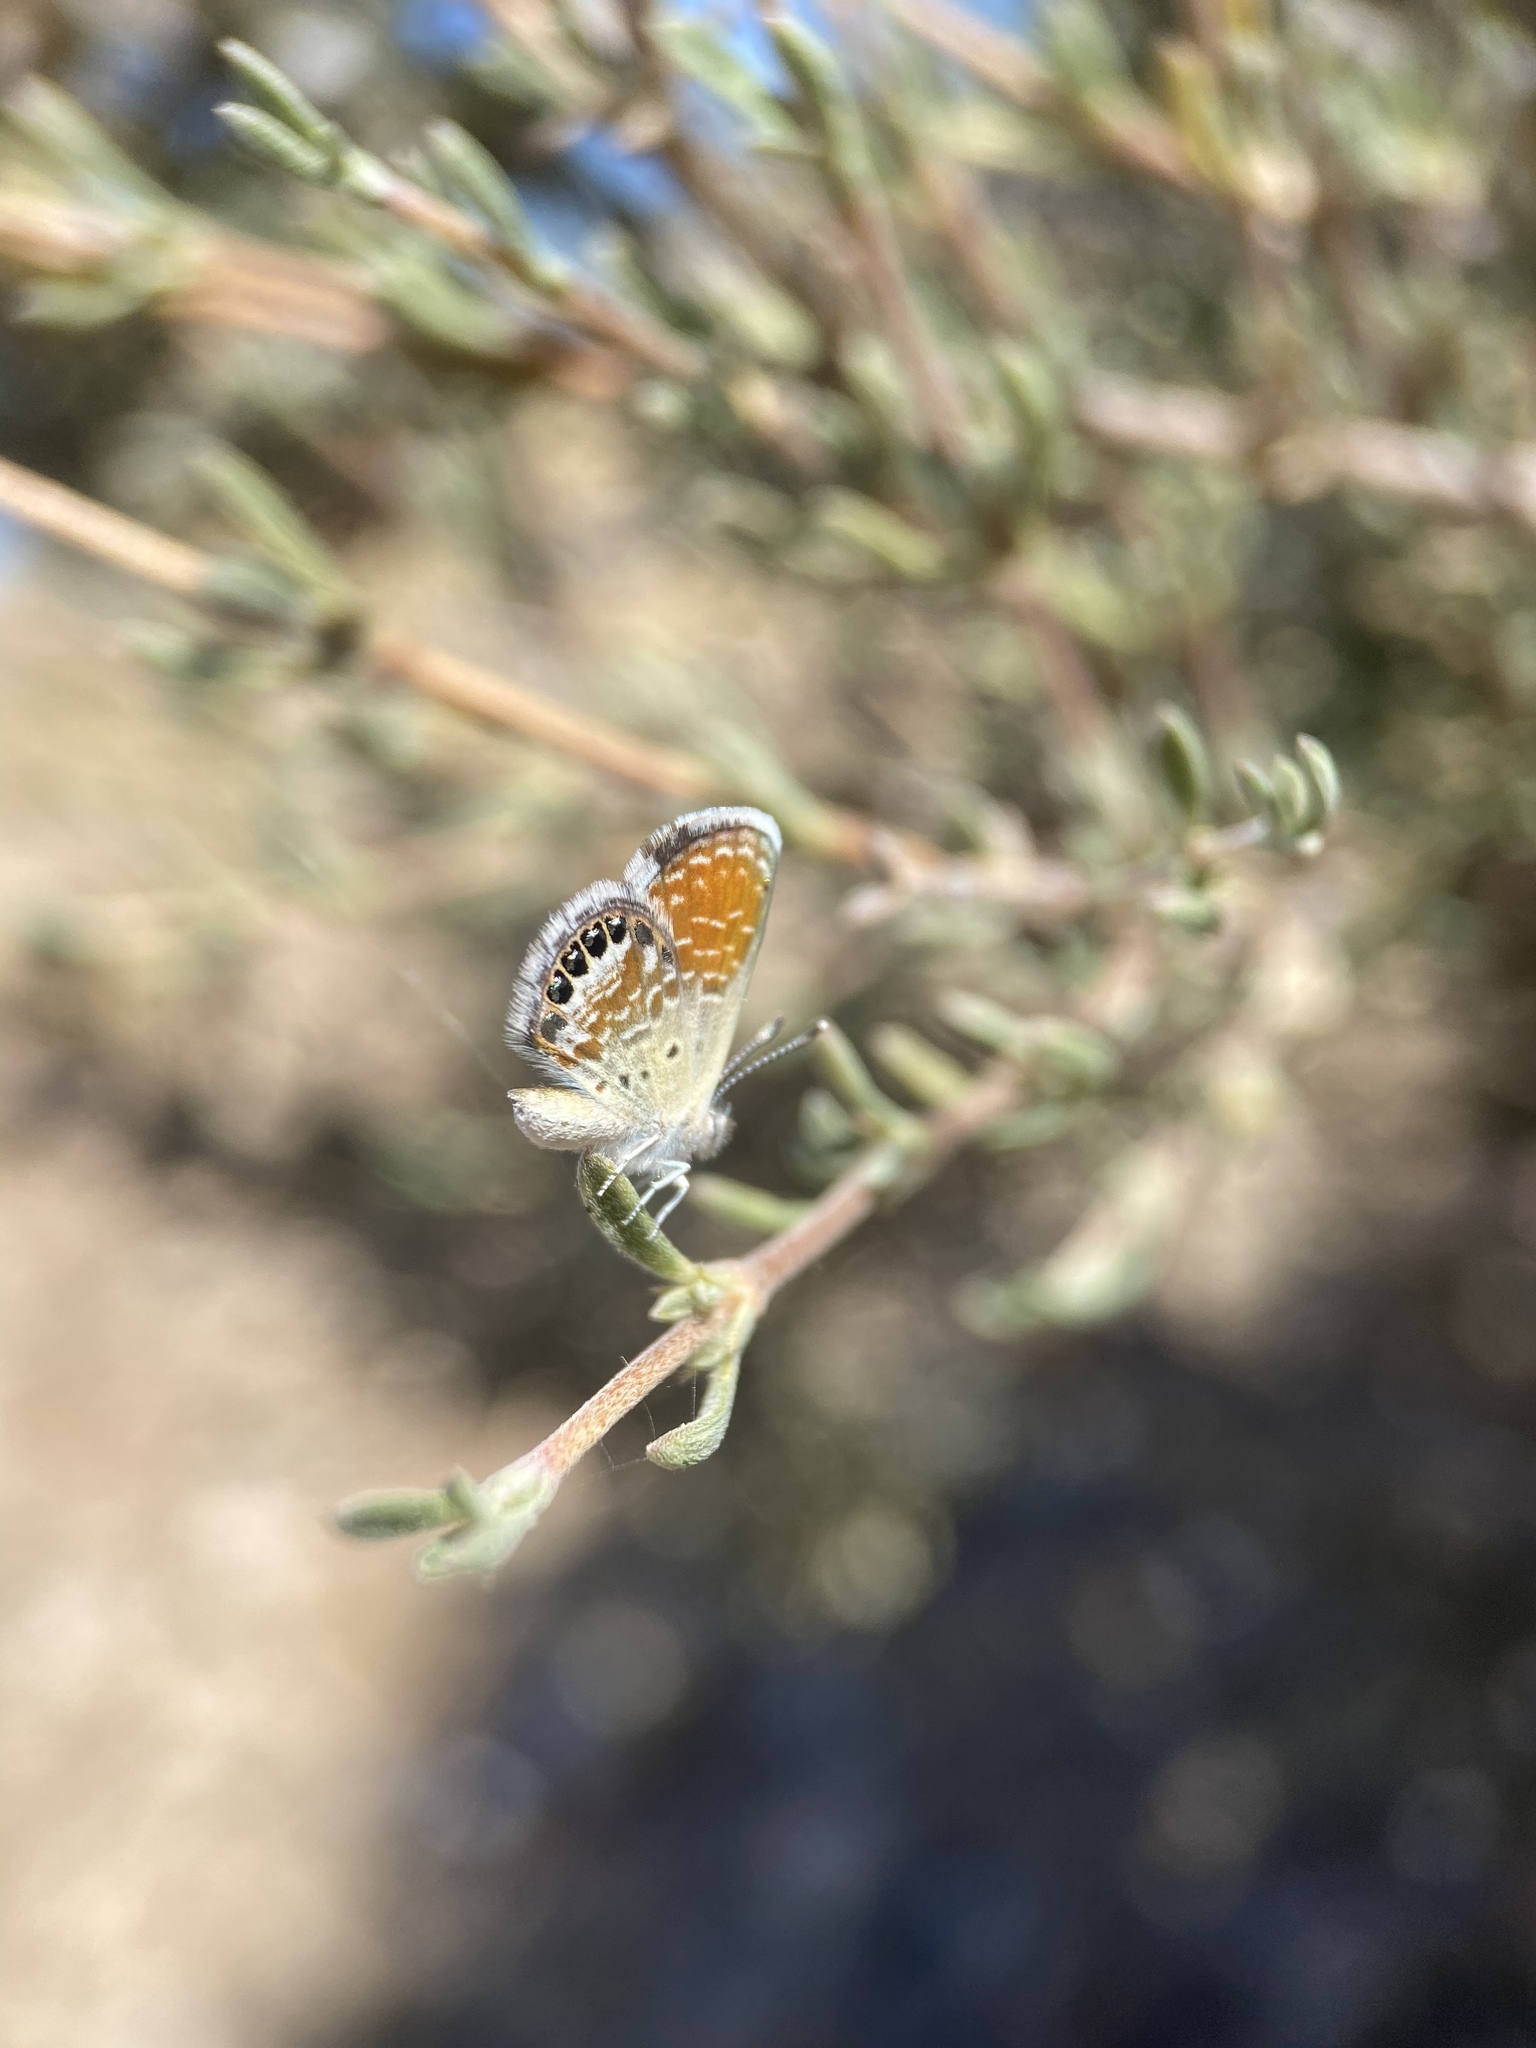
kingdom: Animalia
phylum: Arthropoda
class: Insecta
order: Lepidoptera
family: Lycaenidae
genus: Brephidium
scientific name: Brephidium exilis
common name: Pygmy blue
